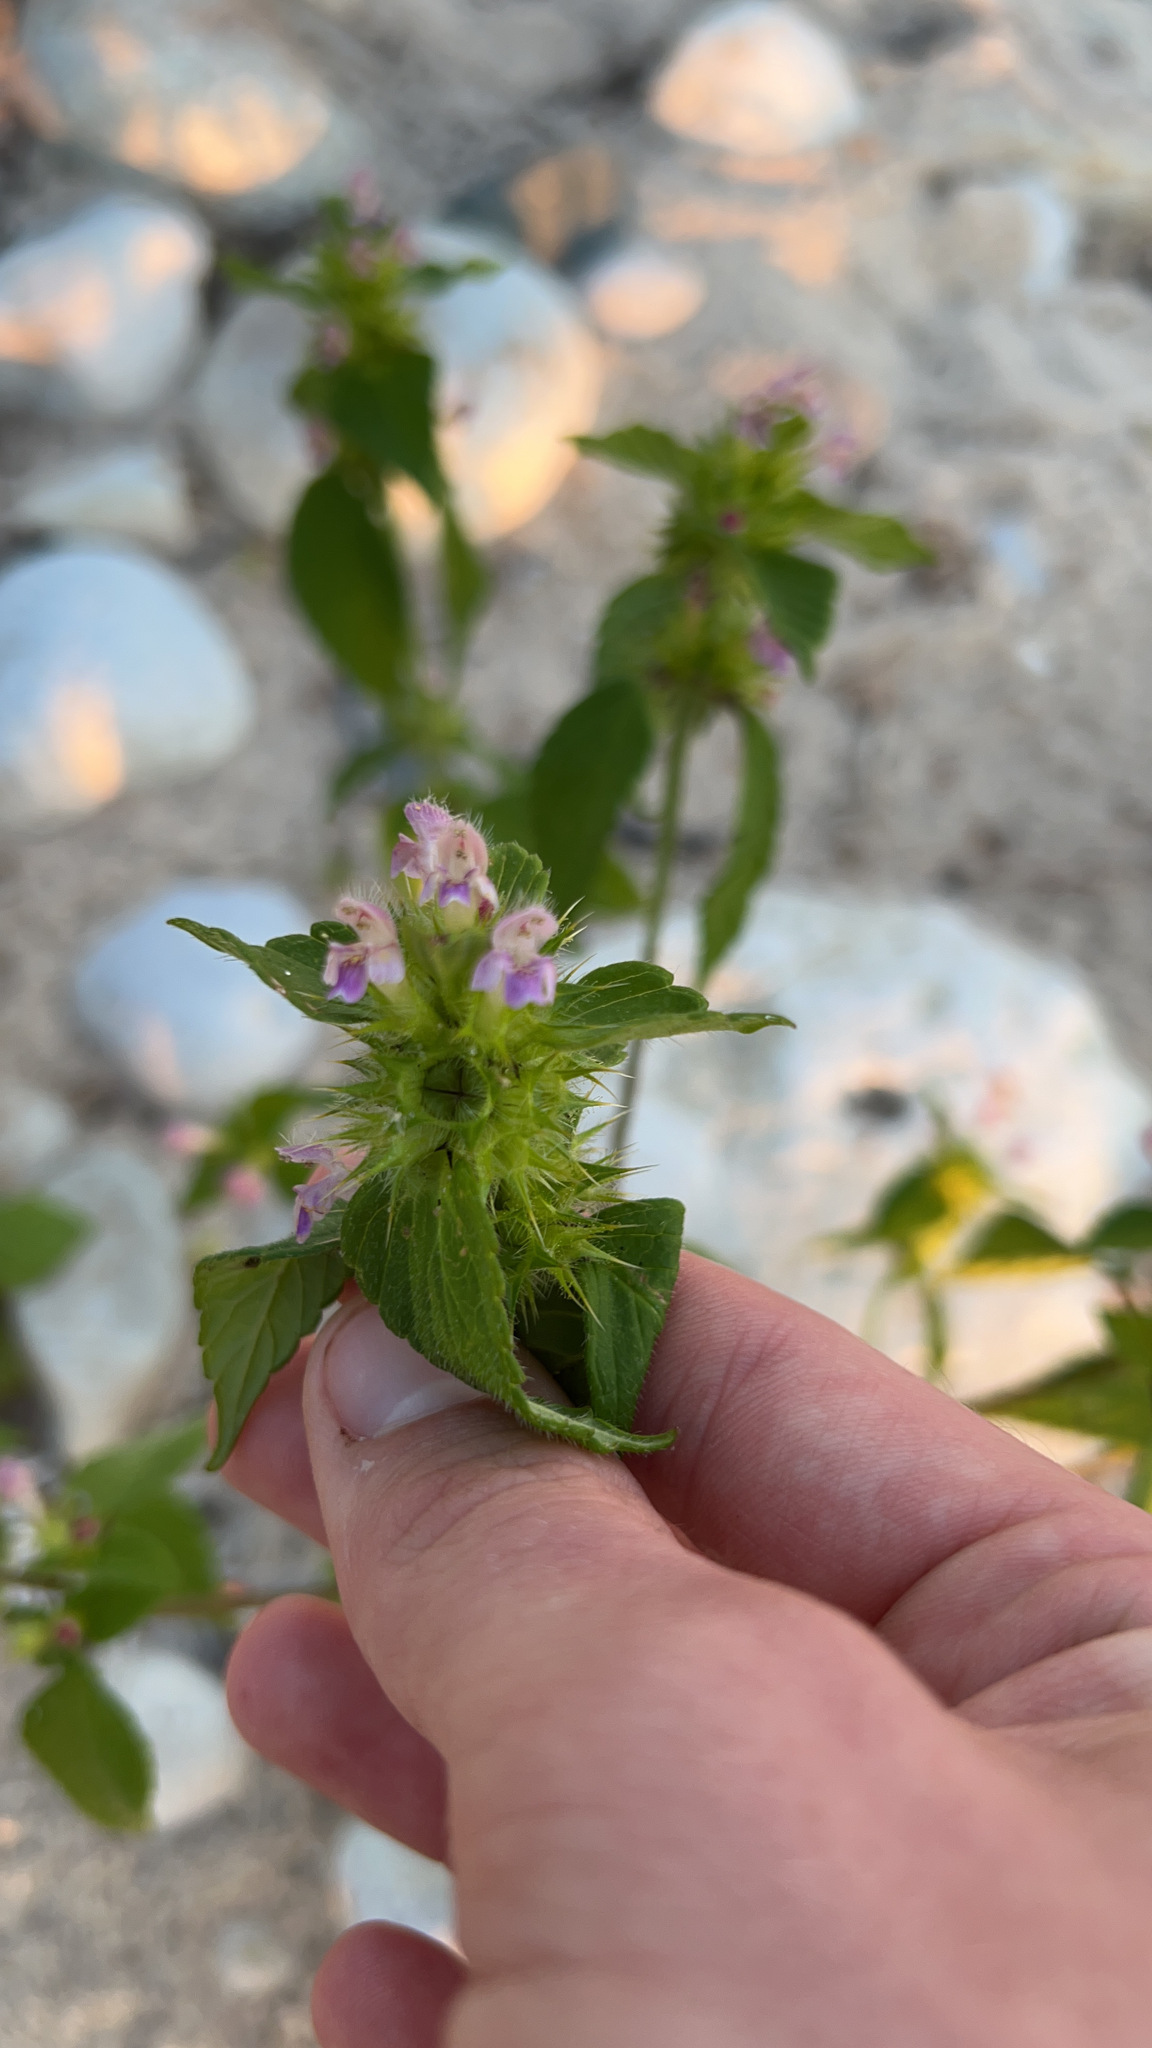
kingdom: Plantae
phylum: Tracheophyta
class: Magnoliopsida
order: Lamiales
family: Lamiaceae
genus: Galeopsis
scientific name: Galeopsis bifida
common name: Bifid hemp-nettle
